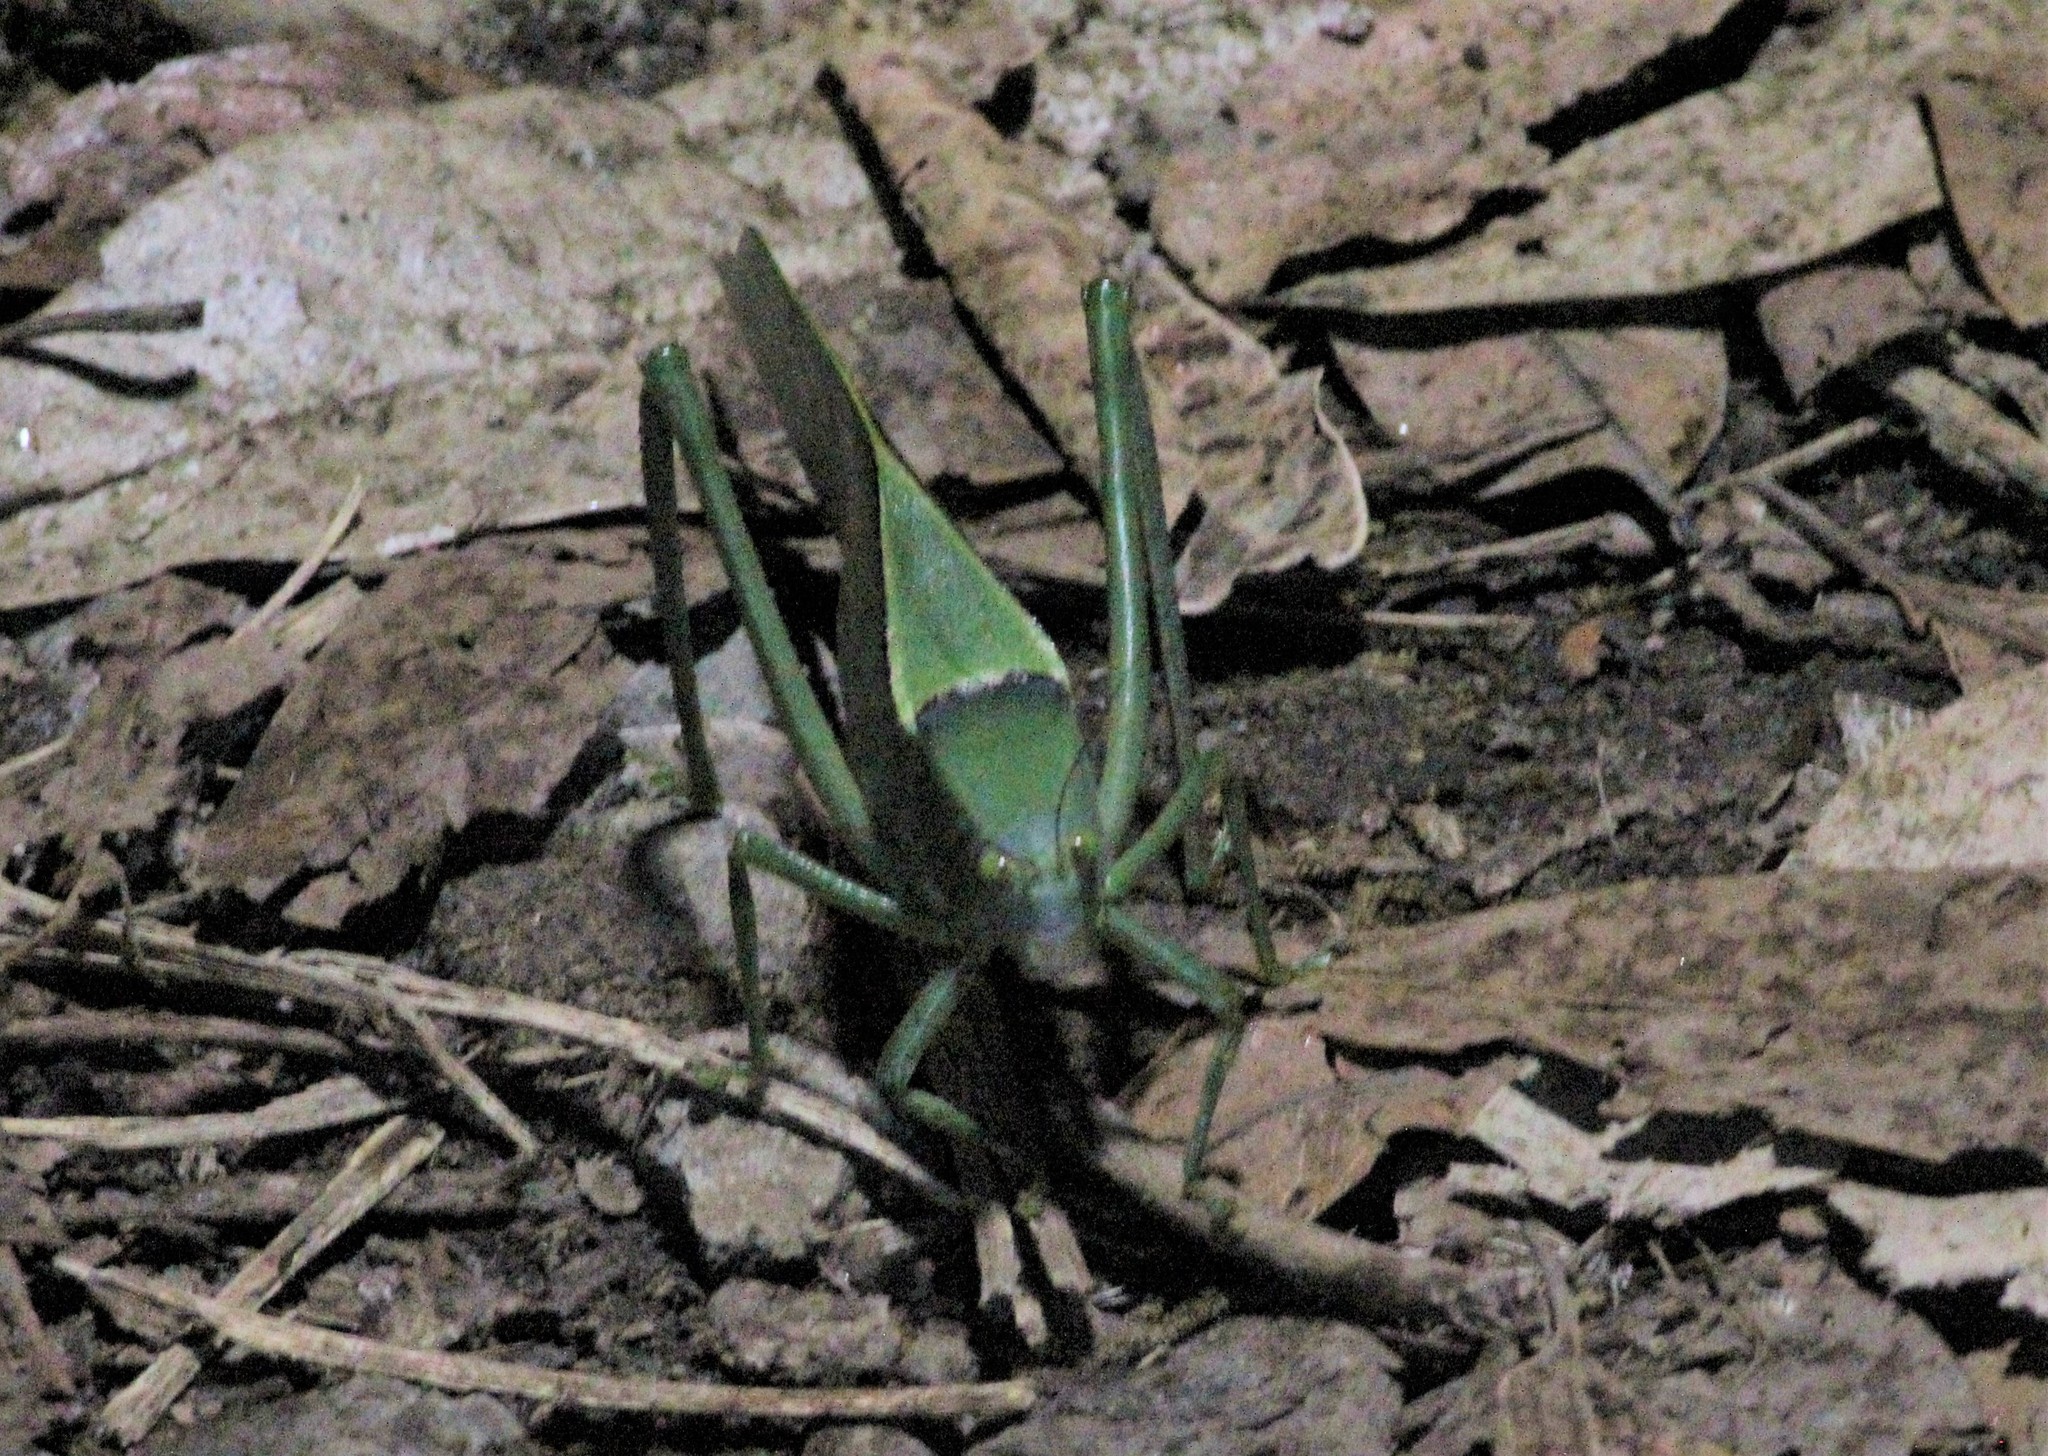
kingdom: Animalia
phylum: Arthropoda
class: Insecta
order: Orthoptera
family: Tettigoniidae
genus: Stilpnochlora
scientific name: Stilpnochlora azteca
